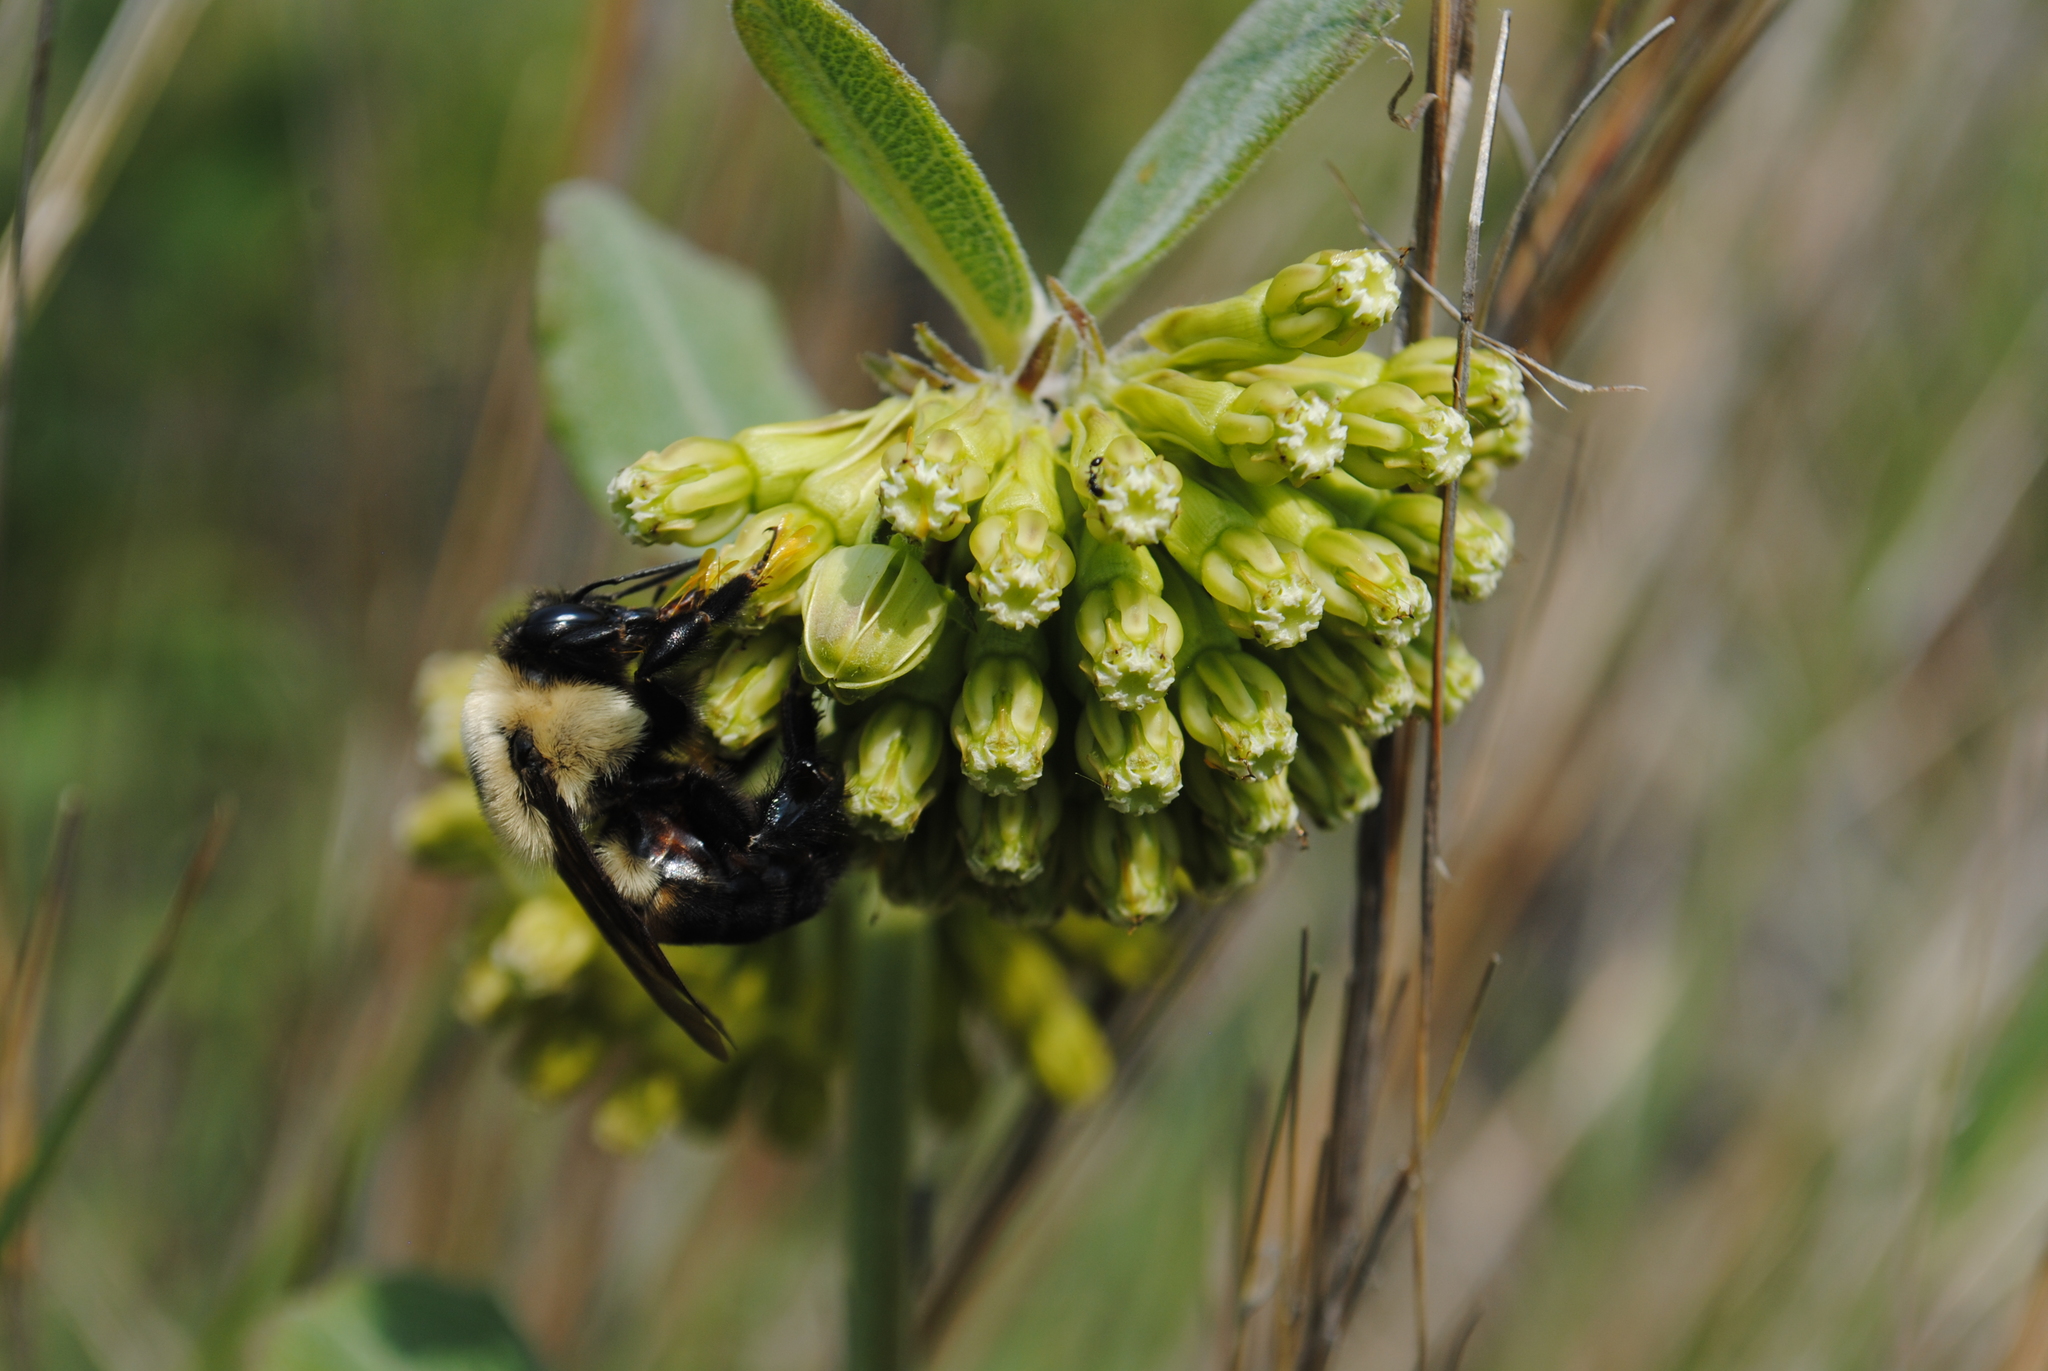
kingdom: Plantae
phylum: Tracheophyta
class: Magnoliopsida
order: Gentianales
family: Apocynaceae
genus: Asclepias
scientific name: Asclepias viridiflora
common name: Green comet milkweed
